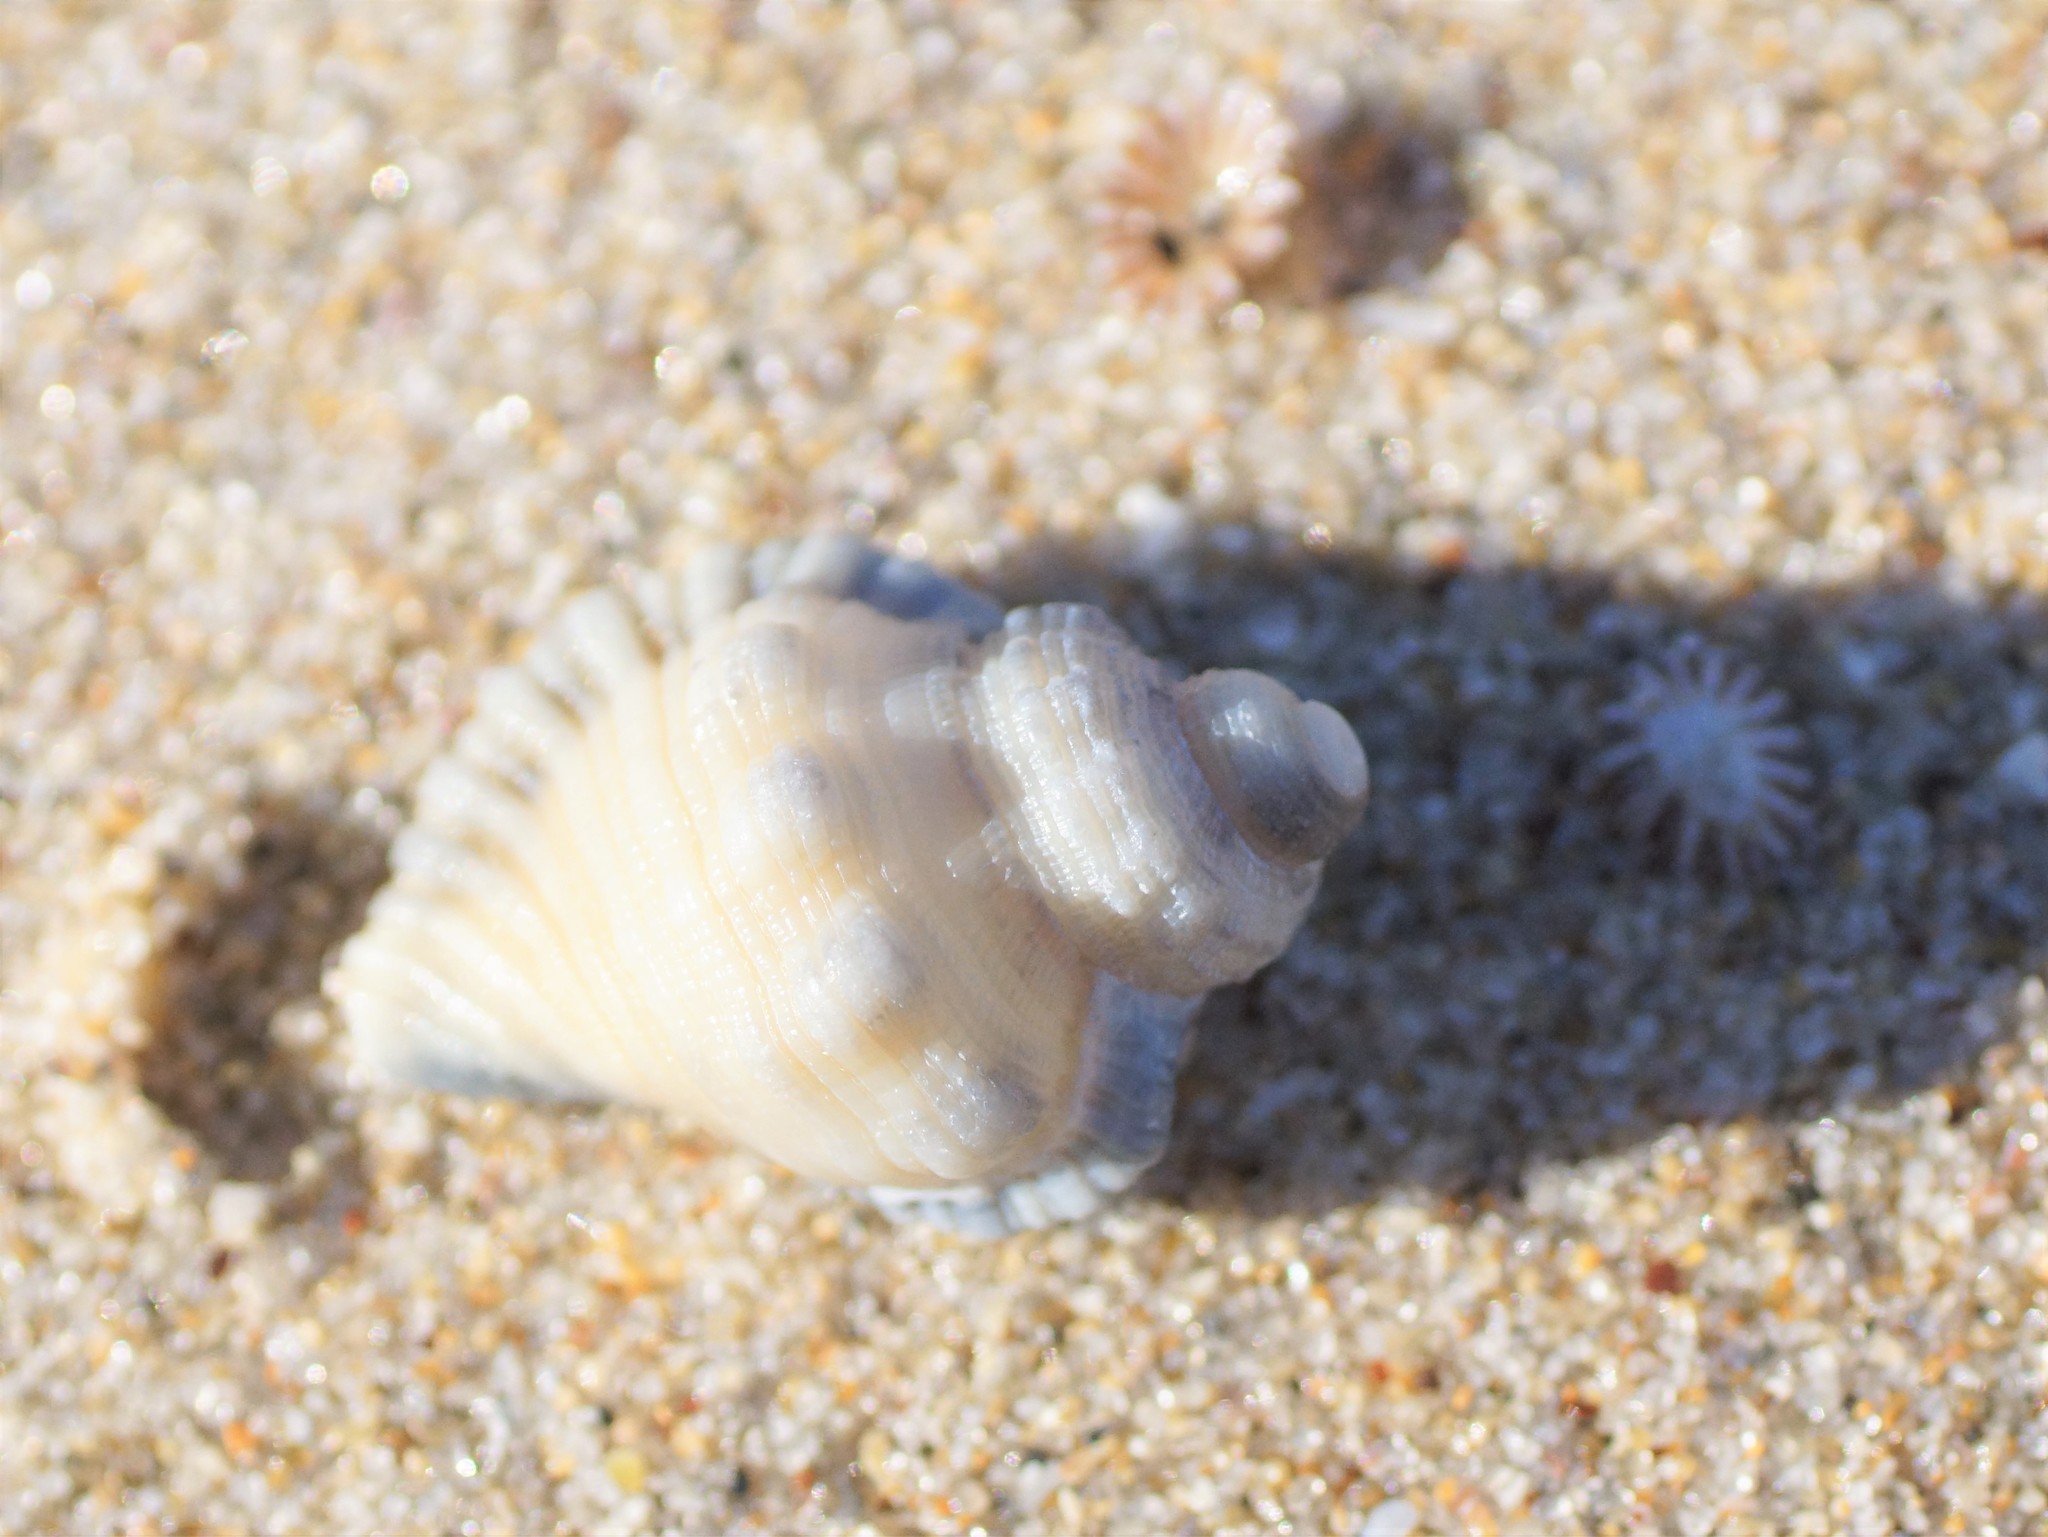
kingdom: Animalia
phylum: Mollusca
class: Gastropoda
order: Littorinimorpha
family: Cymatiidae
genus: Cabestana
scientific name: Cabestana spengleri
